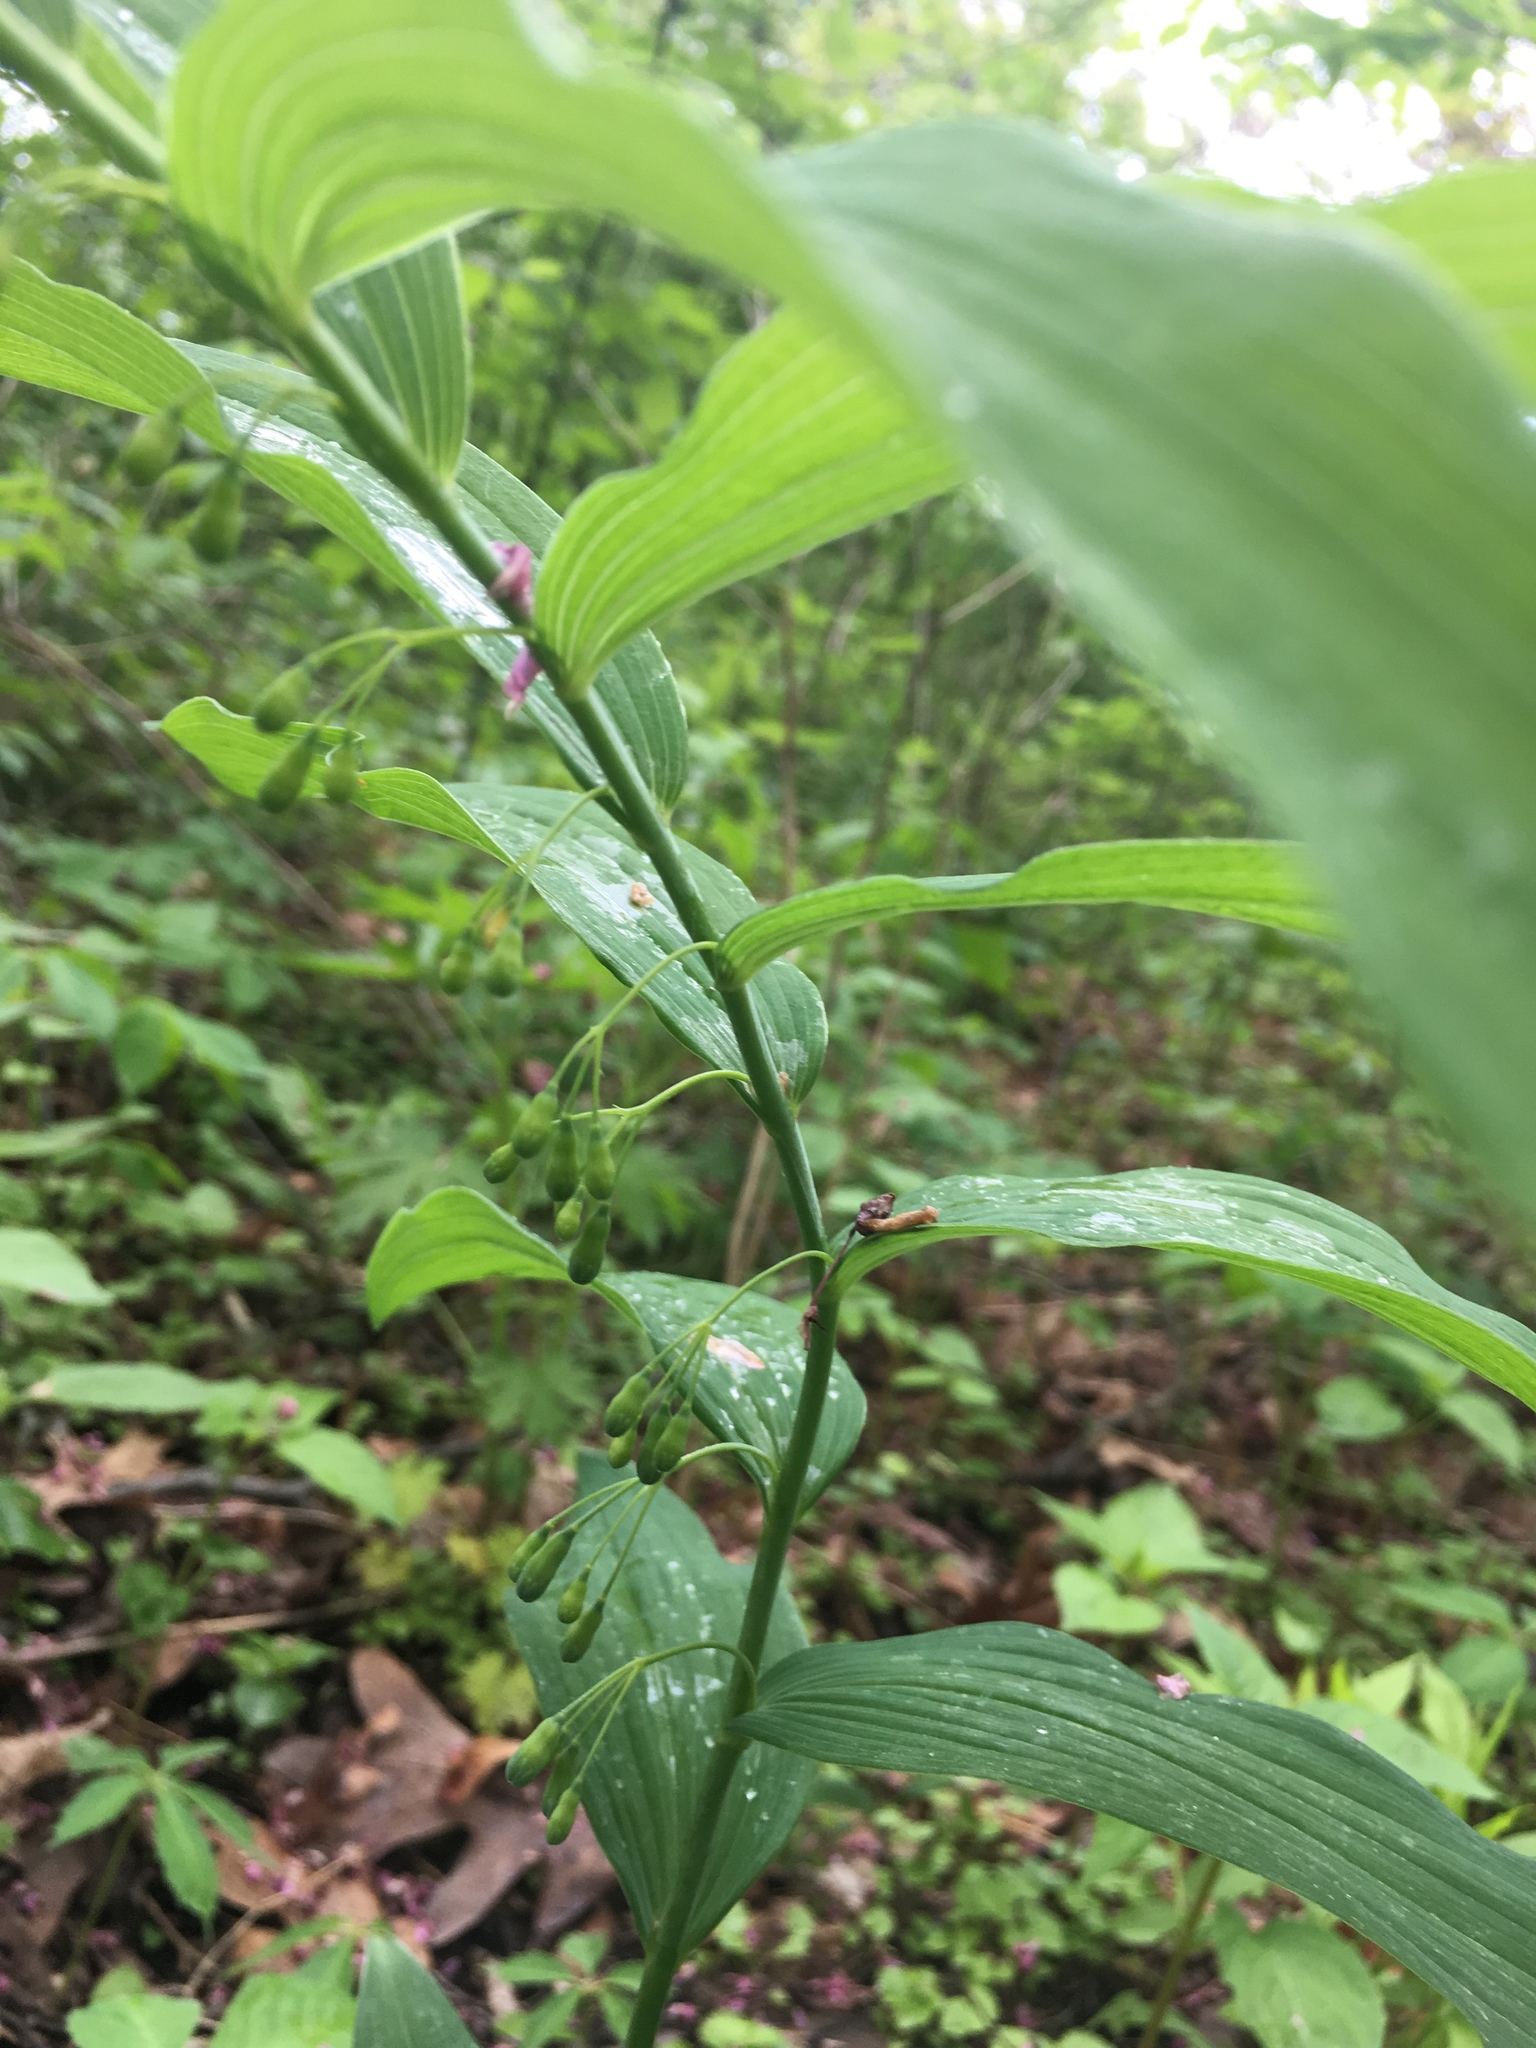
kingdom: Plantae
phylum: Tracheophyta
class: Liliopsida
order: Asparagales
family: Asparagaceae
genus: Polygonatum
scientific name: Polygonatum biflorum
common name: American solomon's-seal
